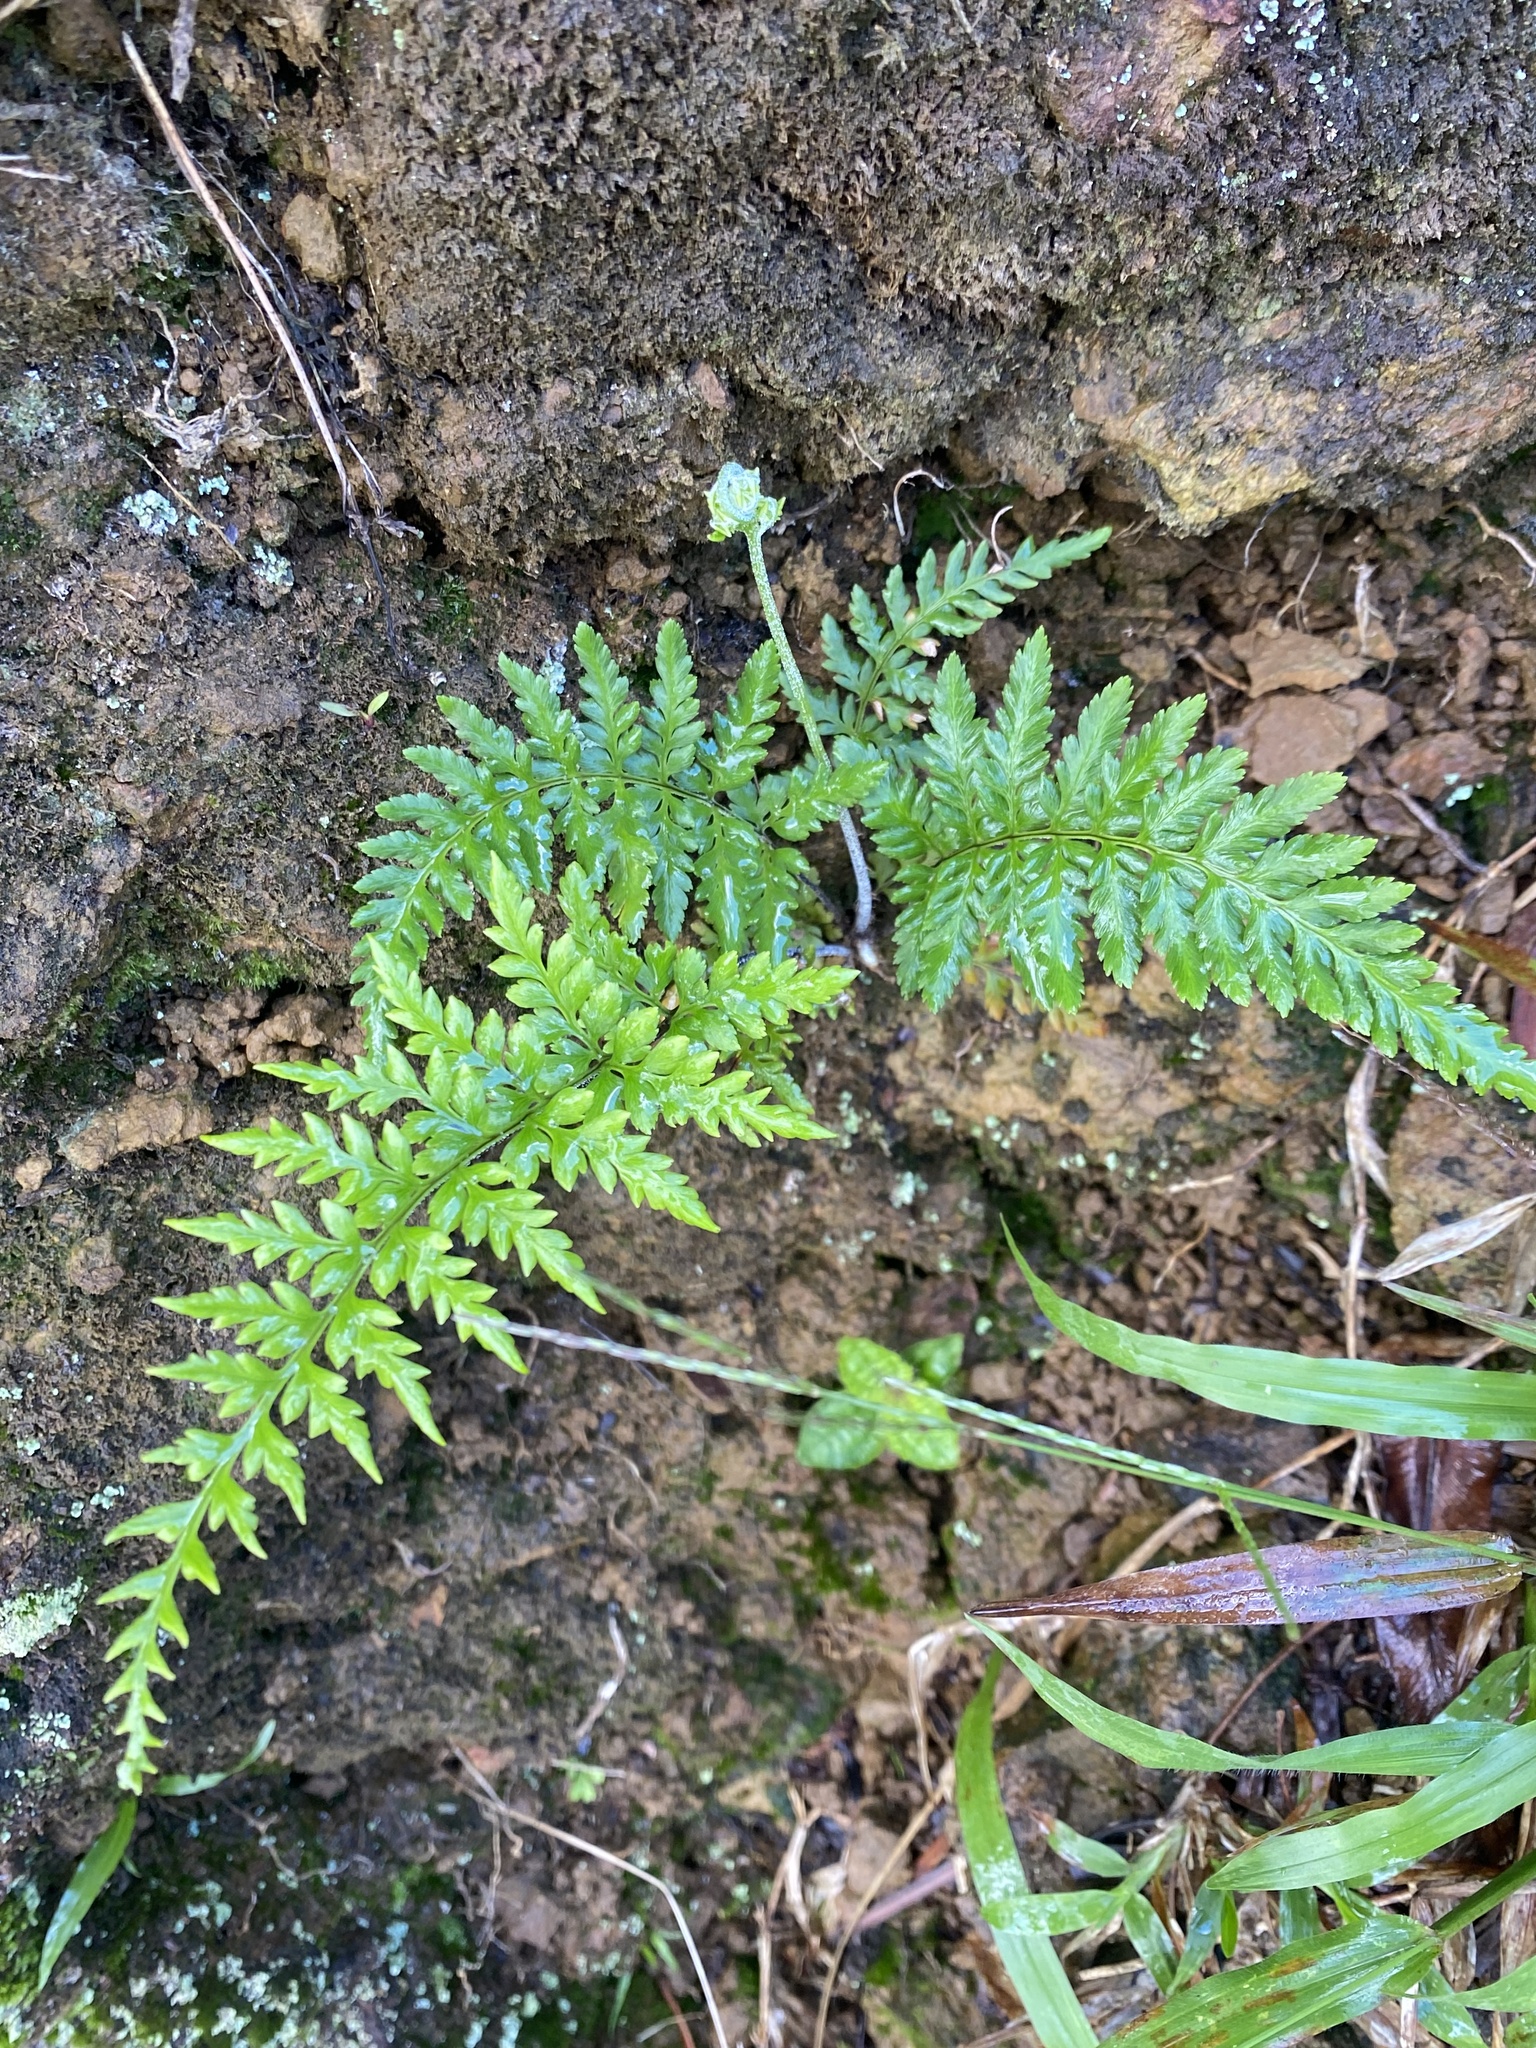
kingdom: Plantae
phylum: Tracheophyta
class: Polypodiopsida
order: Polypodiales
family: Pteridaceae
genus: Pityrogramma
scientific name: Pityrogramma calomelanos
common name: Dixie silverback fern
